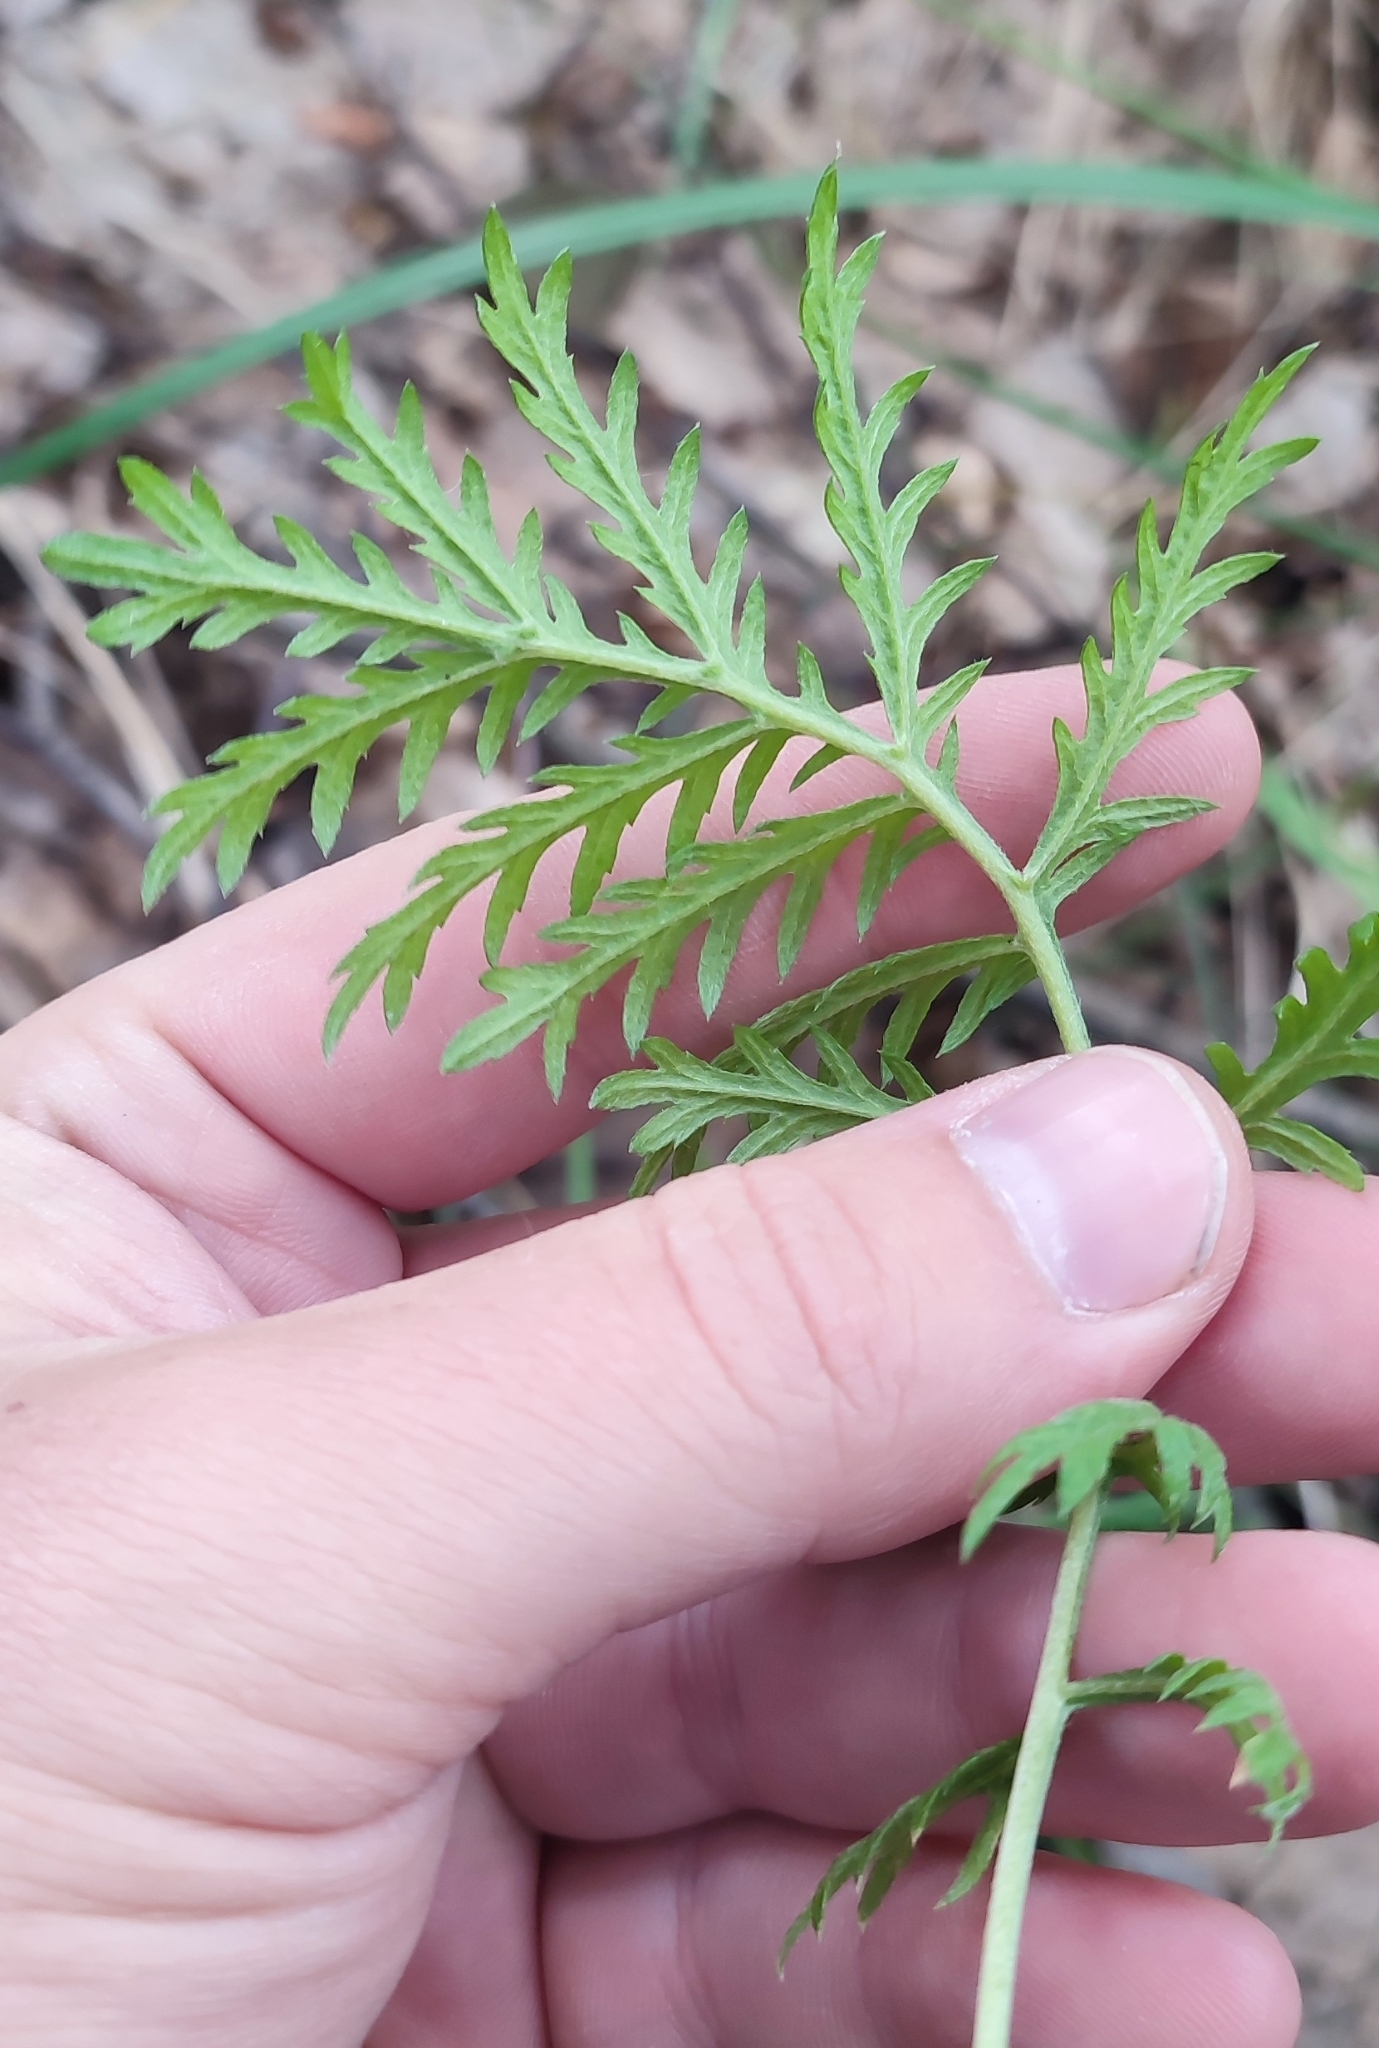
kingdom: Plantae
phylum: Tracheophyta
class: Magnoliopsida
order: Asterales
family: Asteraceae
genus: Artemisia
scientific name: Artemisia latifolia
